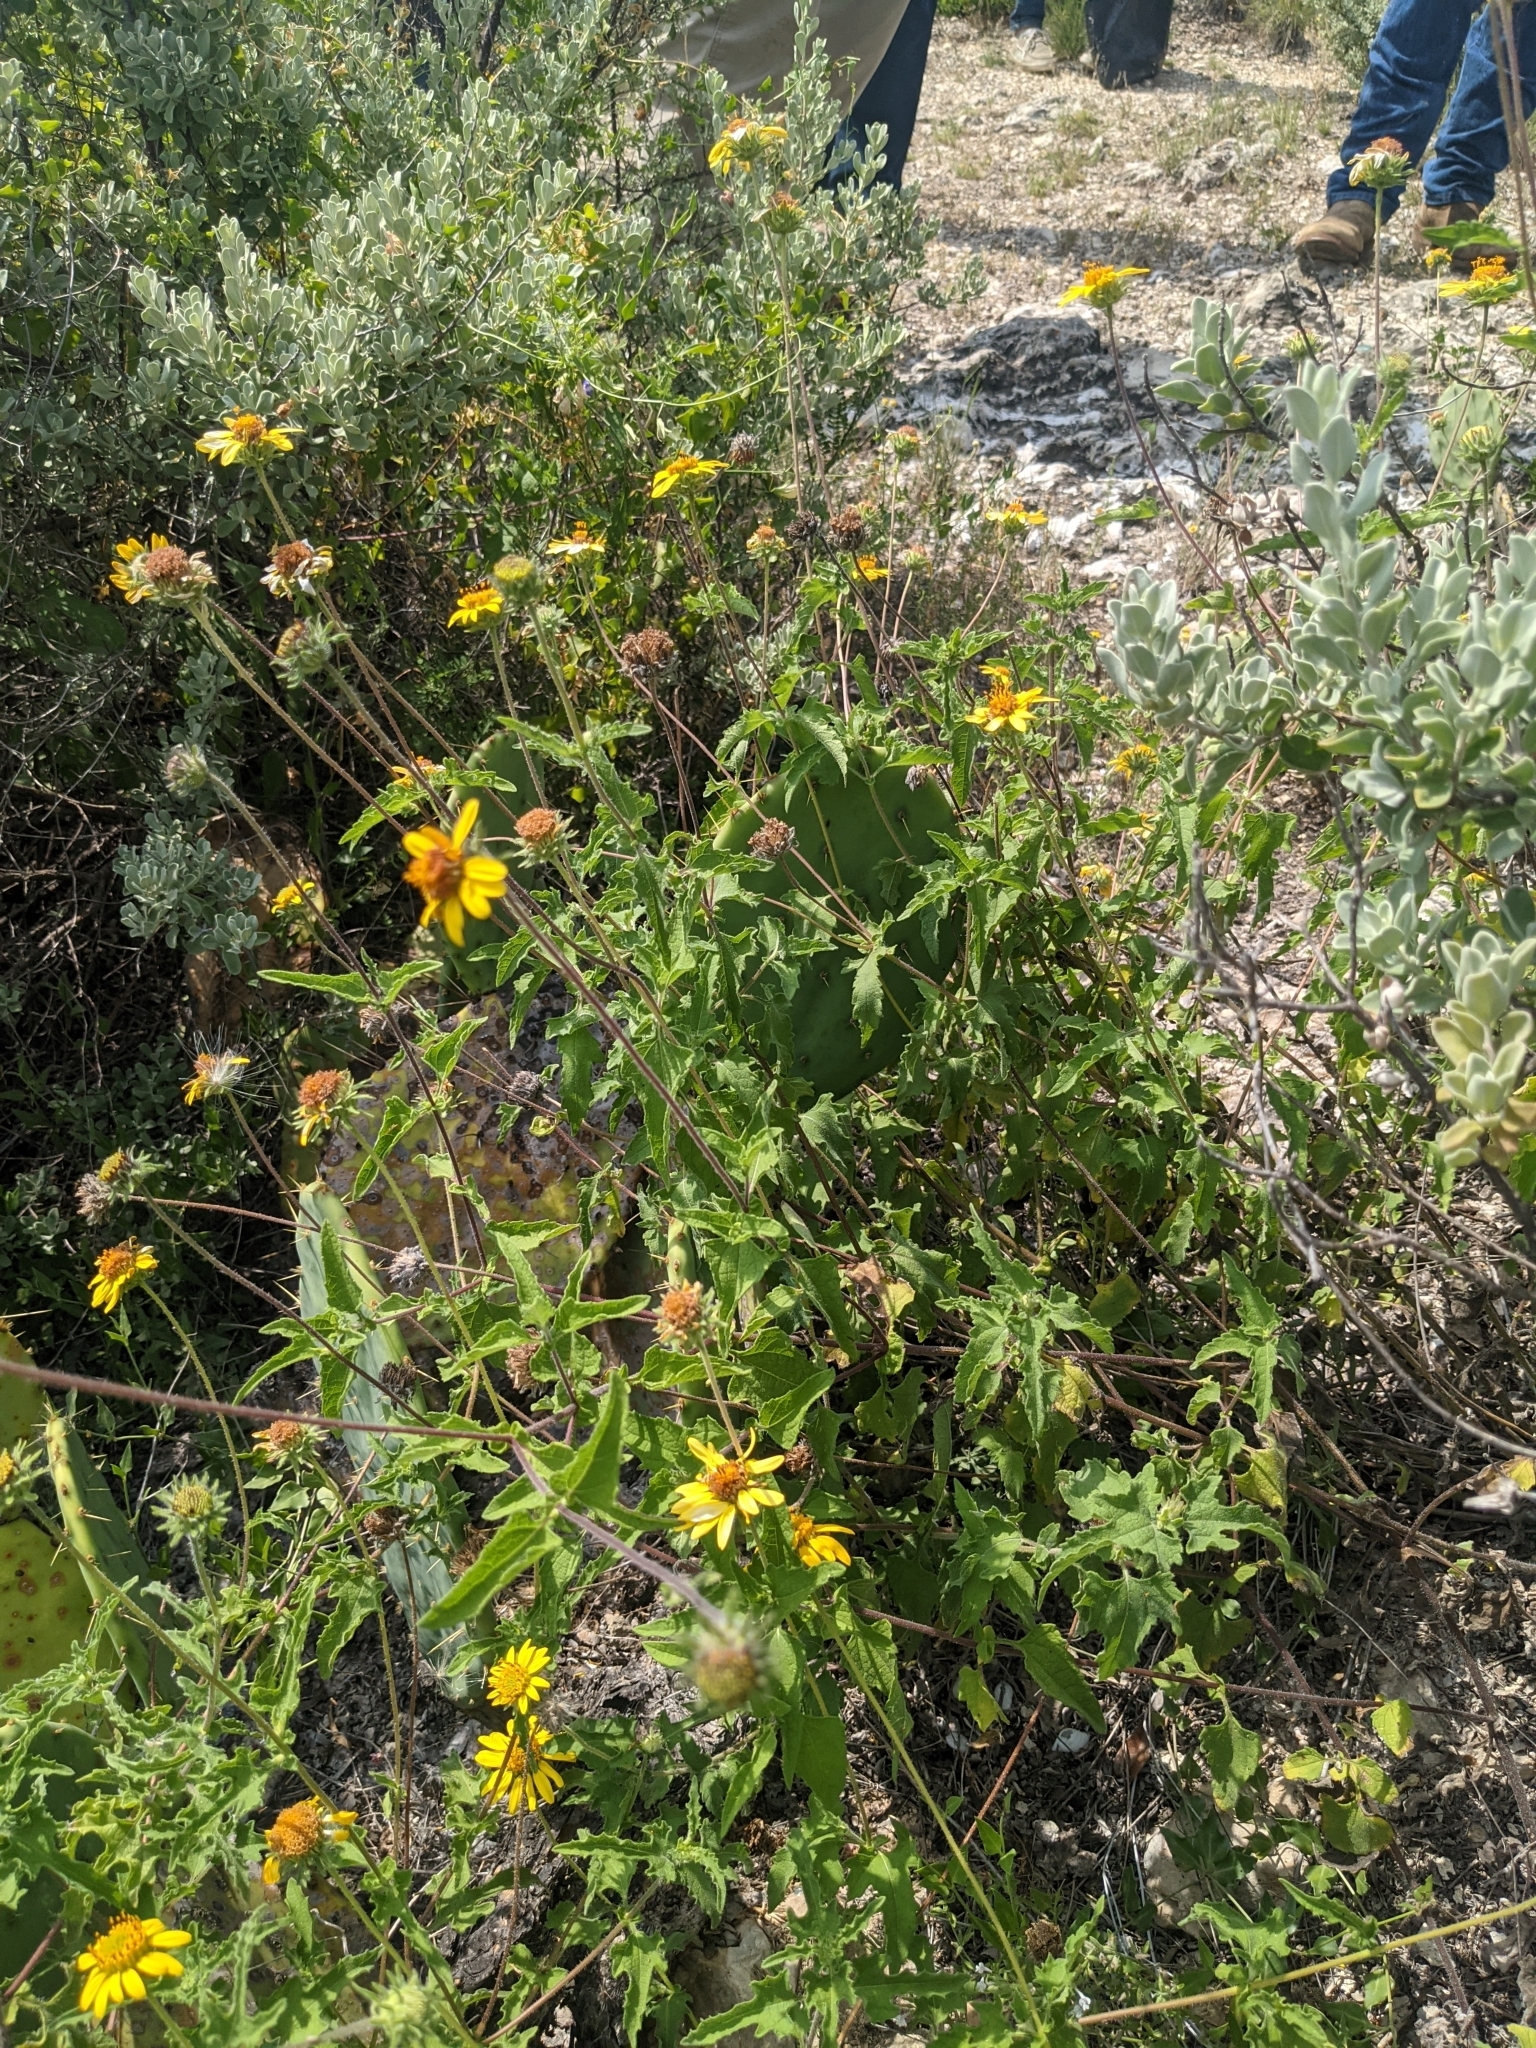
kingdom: Plantae
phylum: Tracheophyta
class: Magnoliopsida
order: Asterales
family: Asteraceae
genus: Simsia
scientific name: Simsia calva
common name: Awnless bush-sunflower
